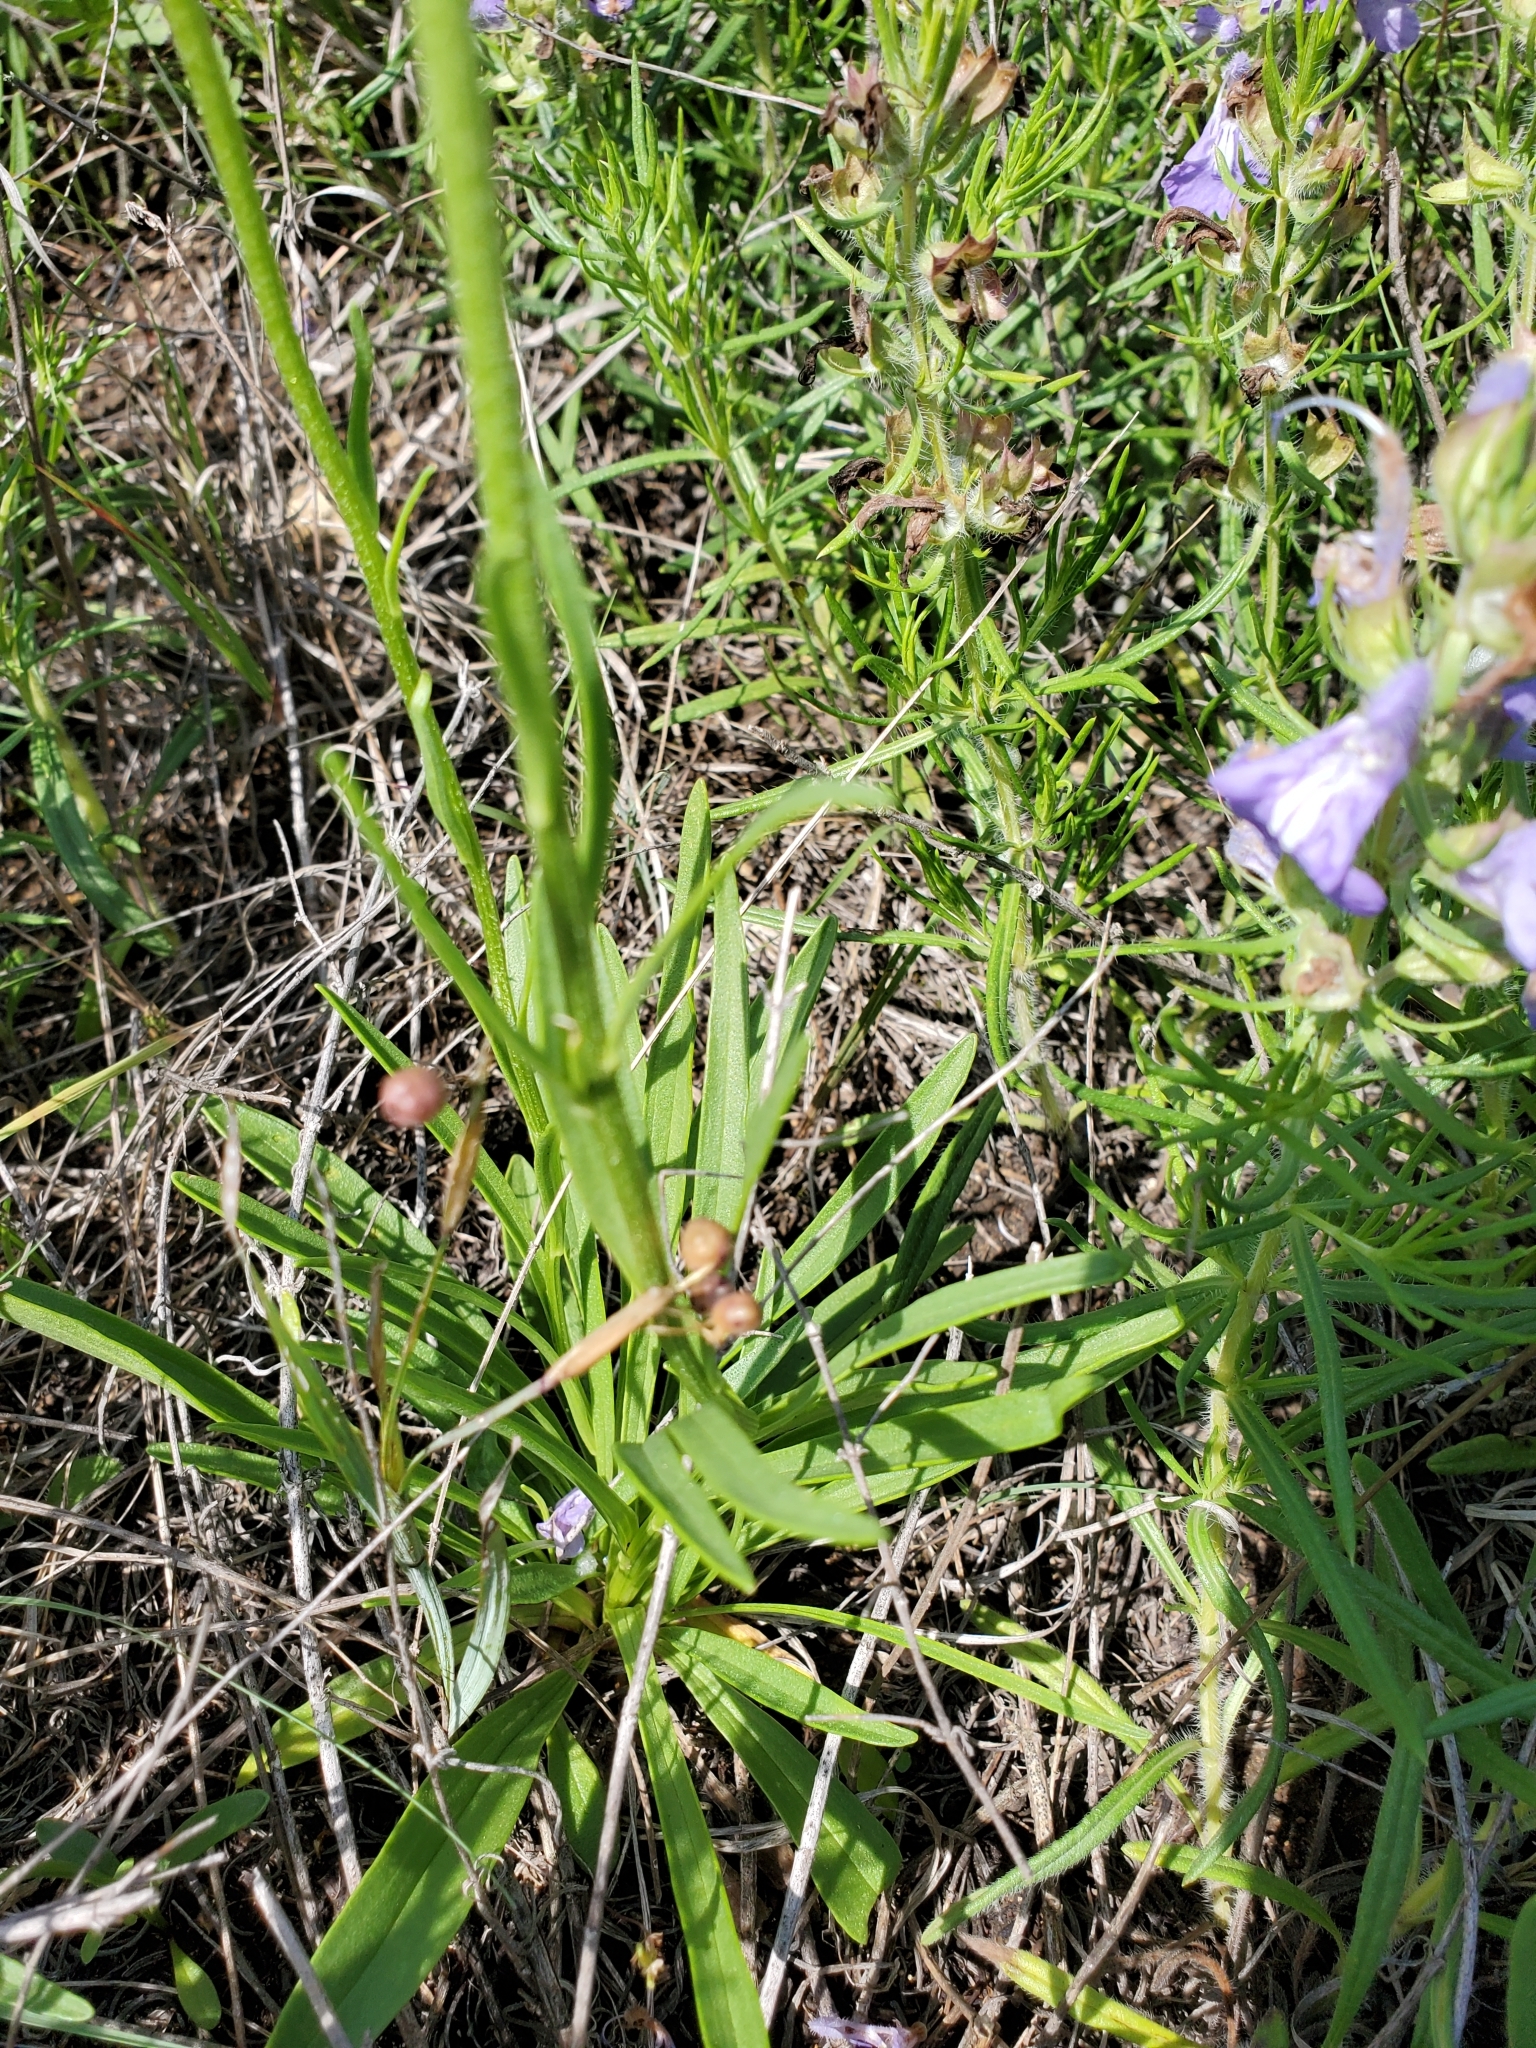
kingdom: Plantae
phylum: Tracheophyta
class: Magnoliopsida
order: Asterales
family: Asteraceae
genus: Marshallia
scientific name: Marshallia caespitosa
